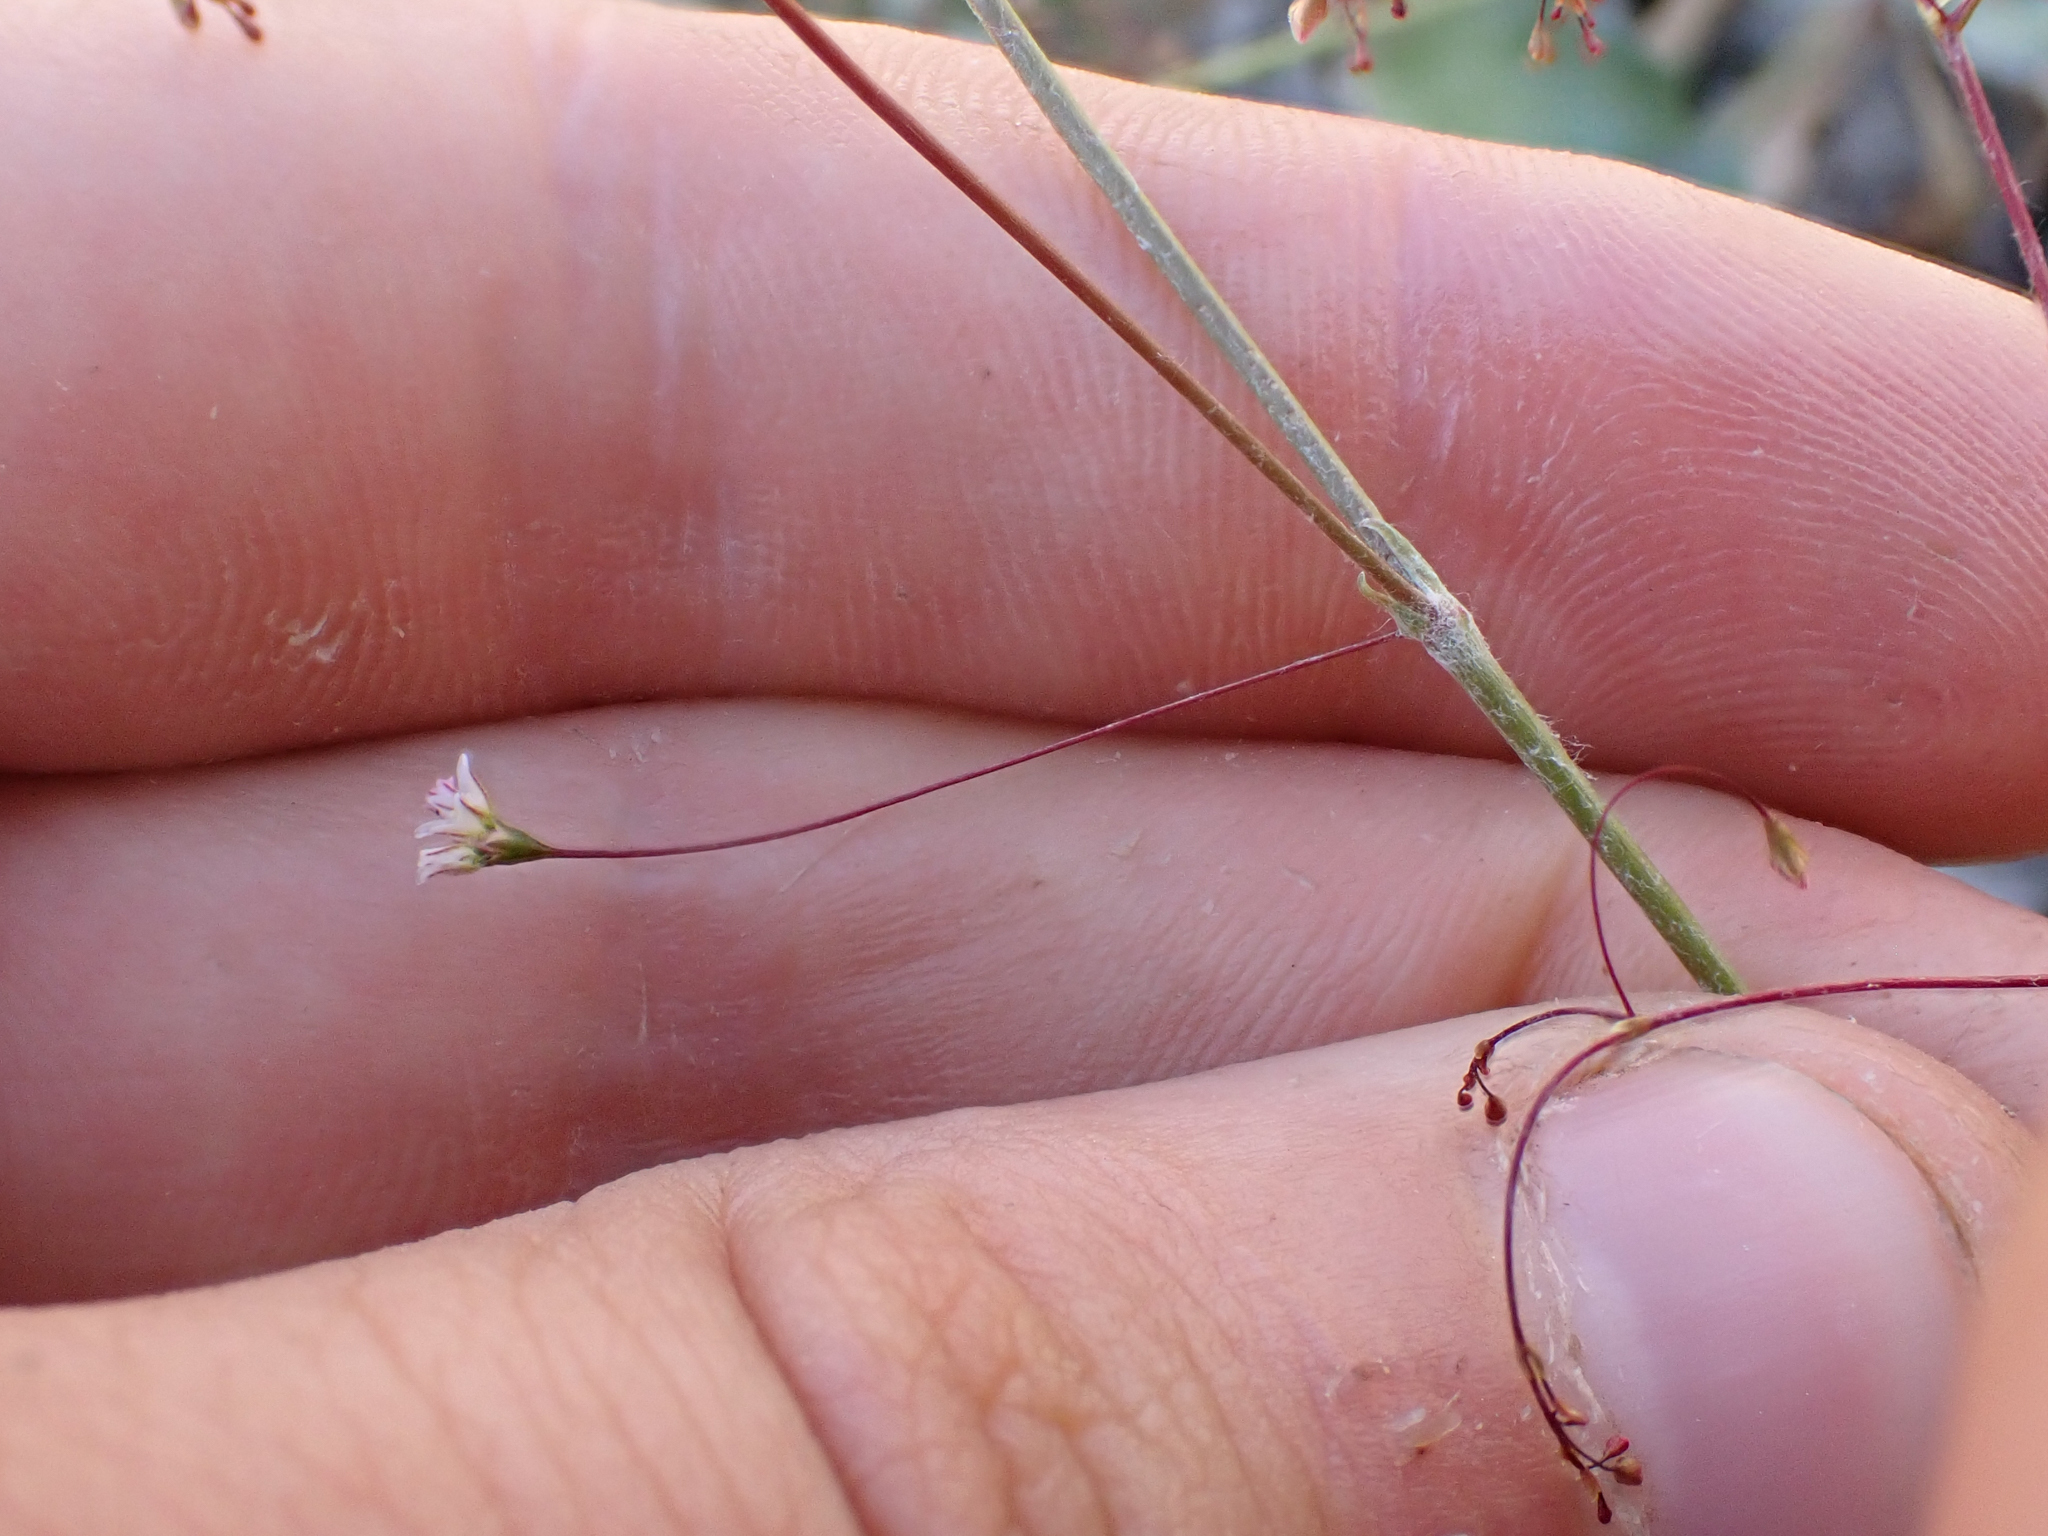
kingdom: Plantae
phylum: Tracheophyta
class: Magnoliopsida
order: Caryophyllales
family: Polygonaceae
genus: Eriogonum
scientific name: Eriogonum ordii
